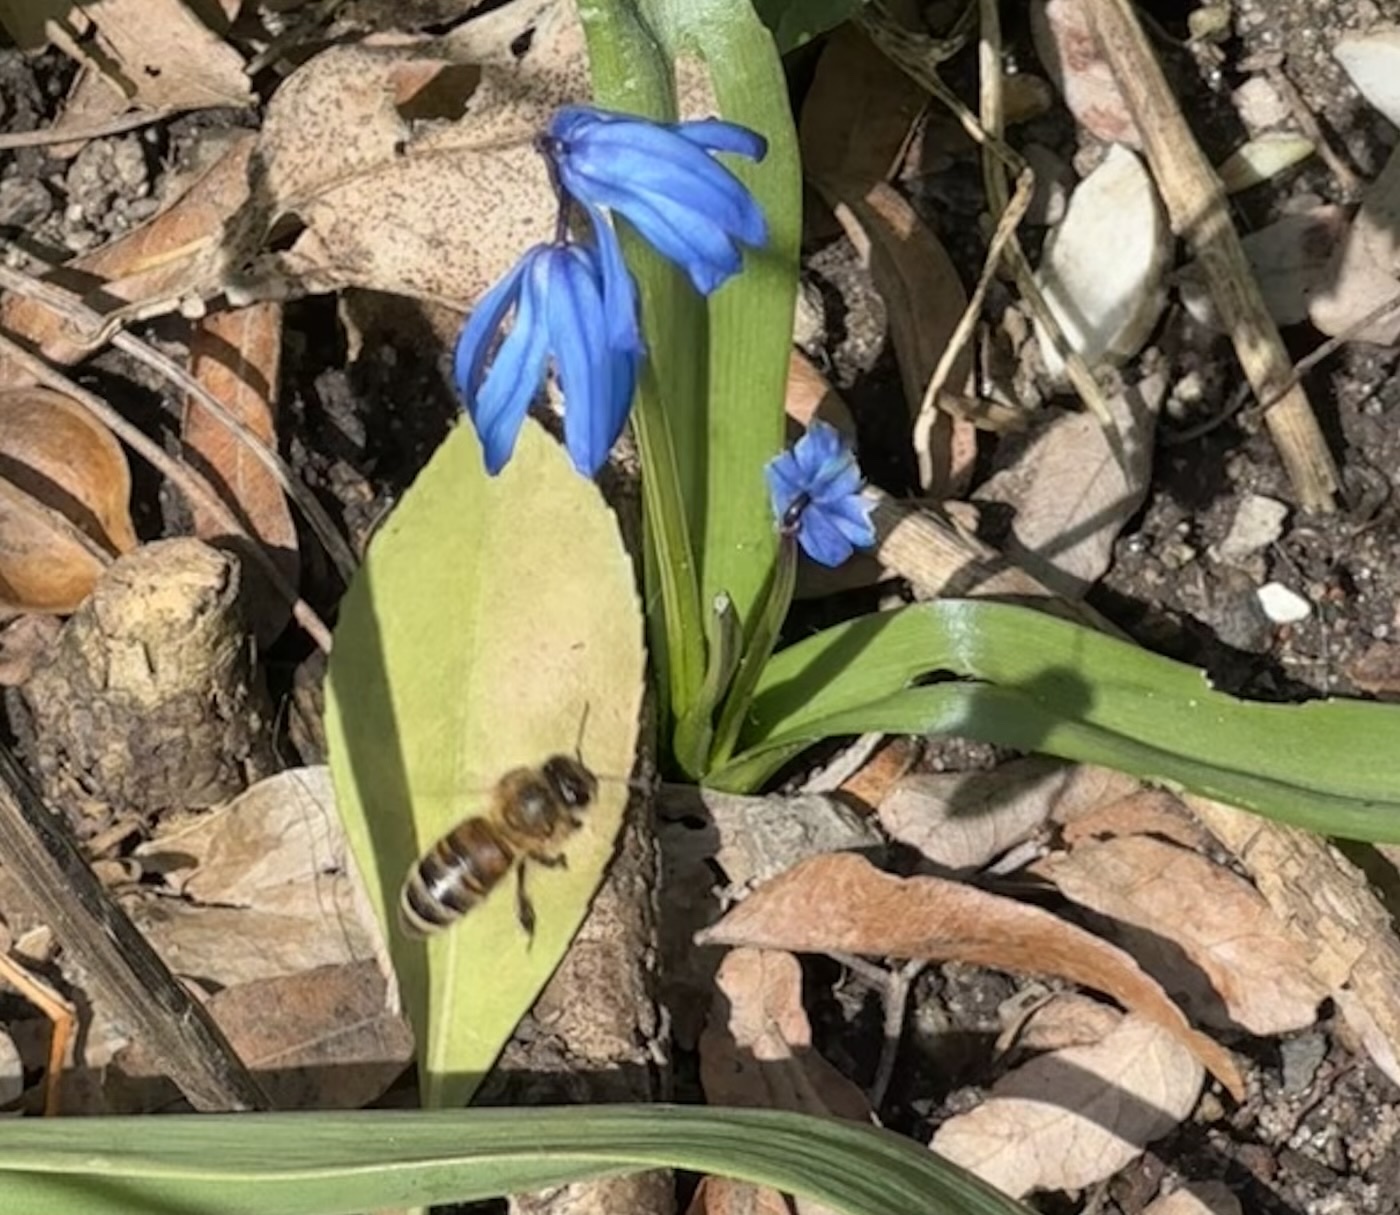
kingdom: Animalia
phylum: Arthropoda
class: Insecta
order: Hymenoptera
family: Apidae
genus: Apis
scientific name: Apis mellifera
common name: Honey bee
